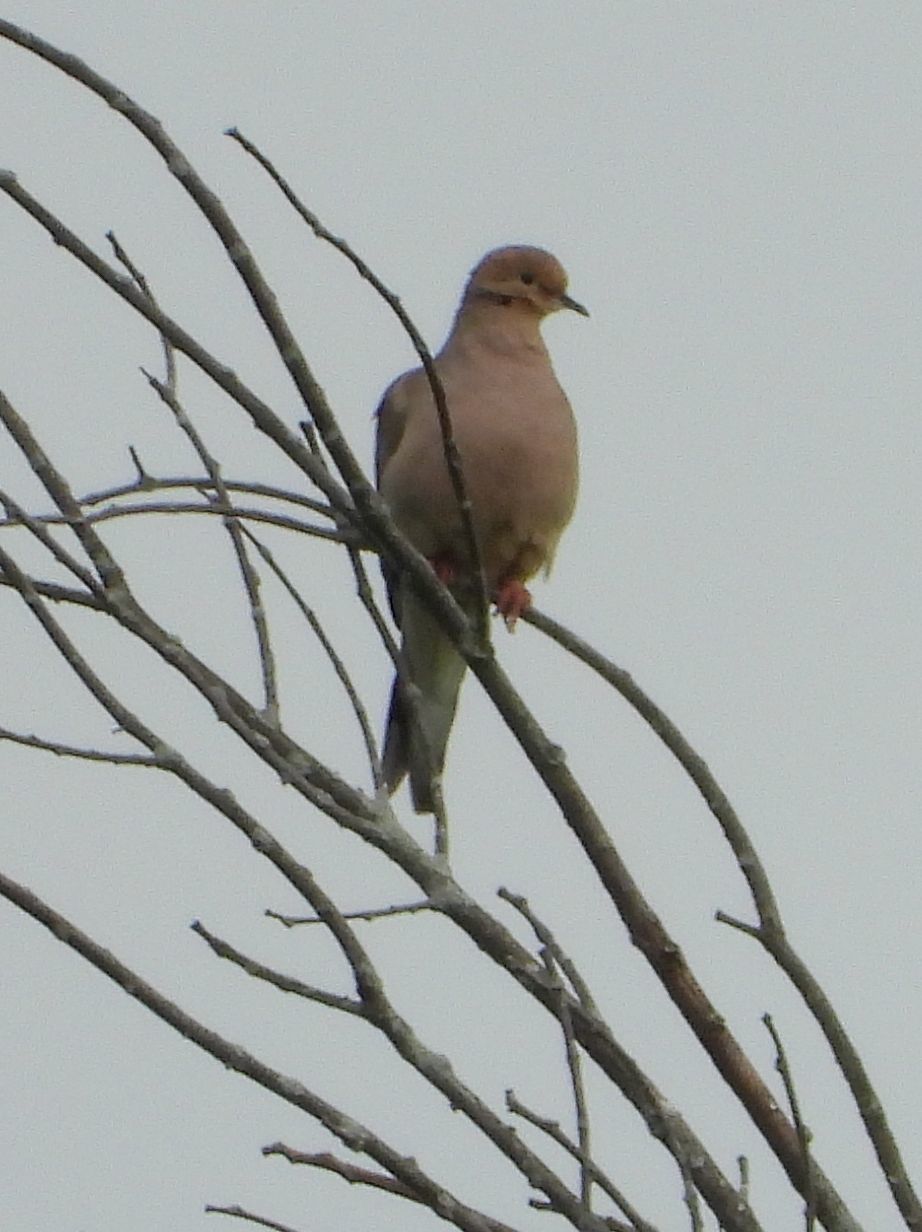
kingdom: Animalia
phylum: Chordata
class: Aves
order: Columbiformes
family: Columbidae
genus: Zenaida
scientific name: Zenaida macroura
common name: Mourning dove
